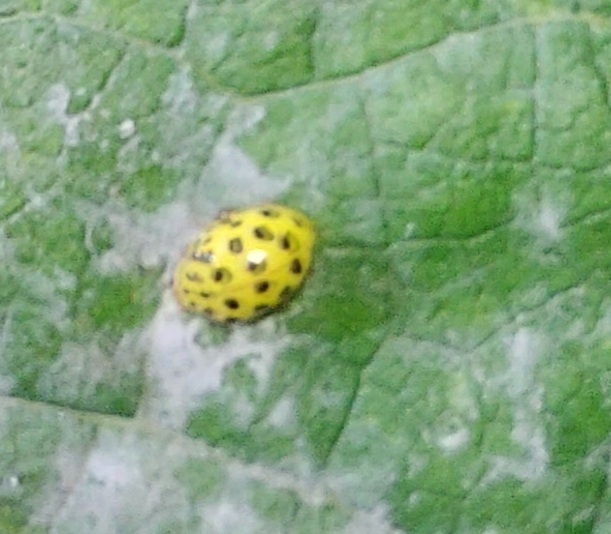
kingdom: Animalia
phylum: Arthropoda
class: Insecta
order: Coleoptera
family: Coccinellidae
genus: Psyllobora
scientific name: Psyllobora vigintiduopunctata
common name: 22-spot ladybird
